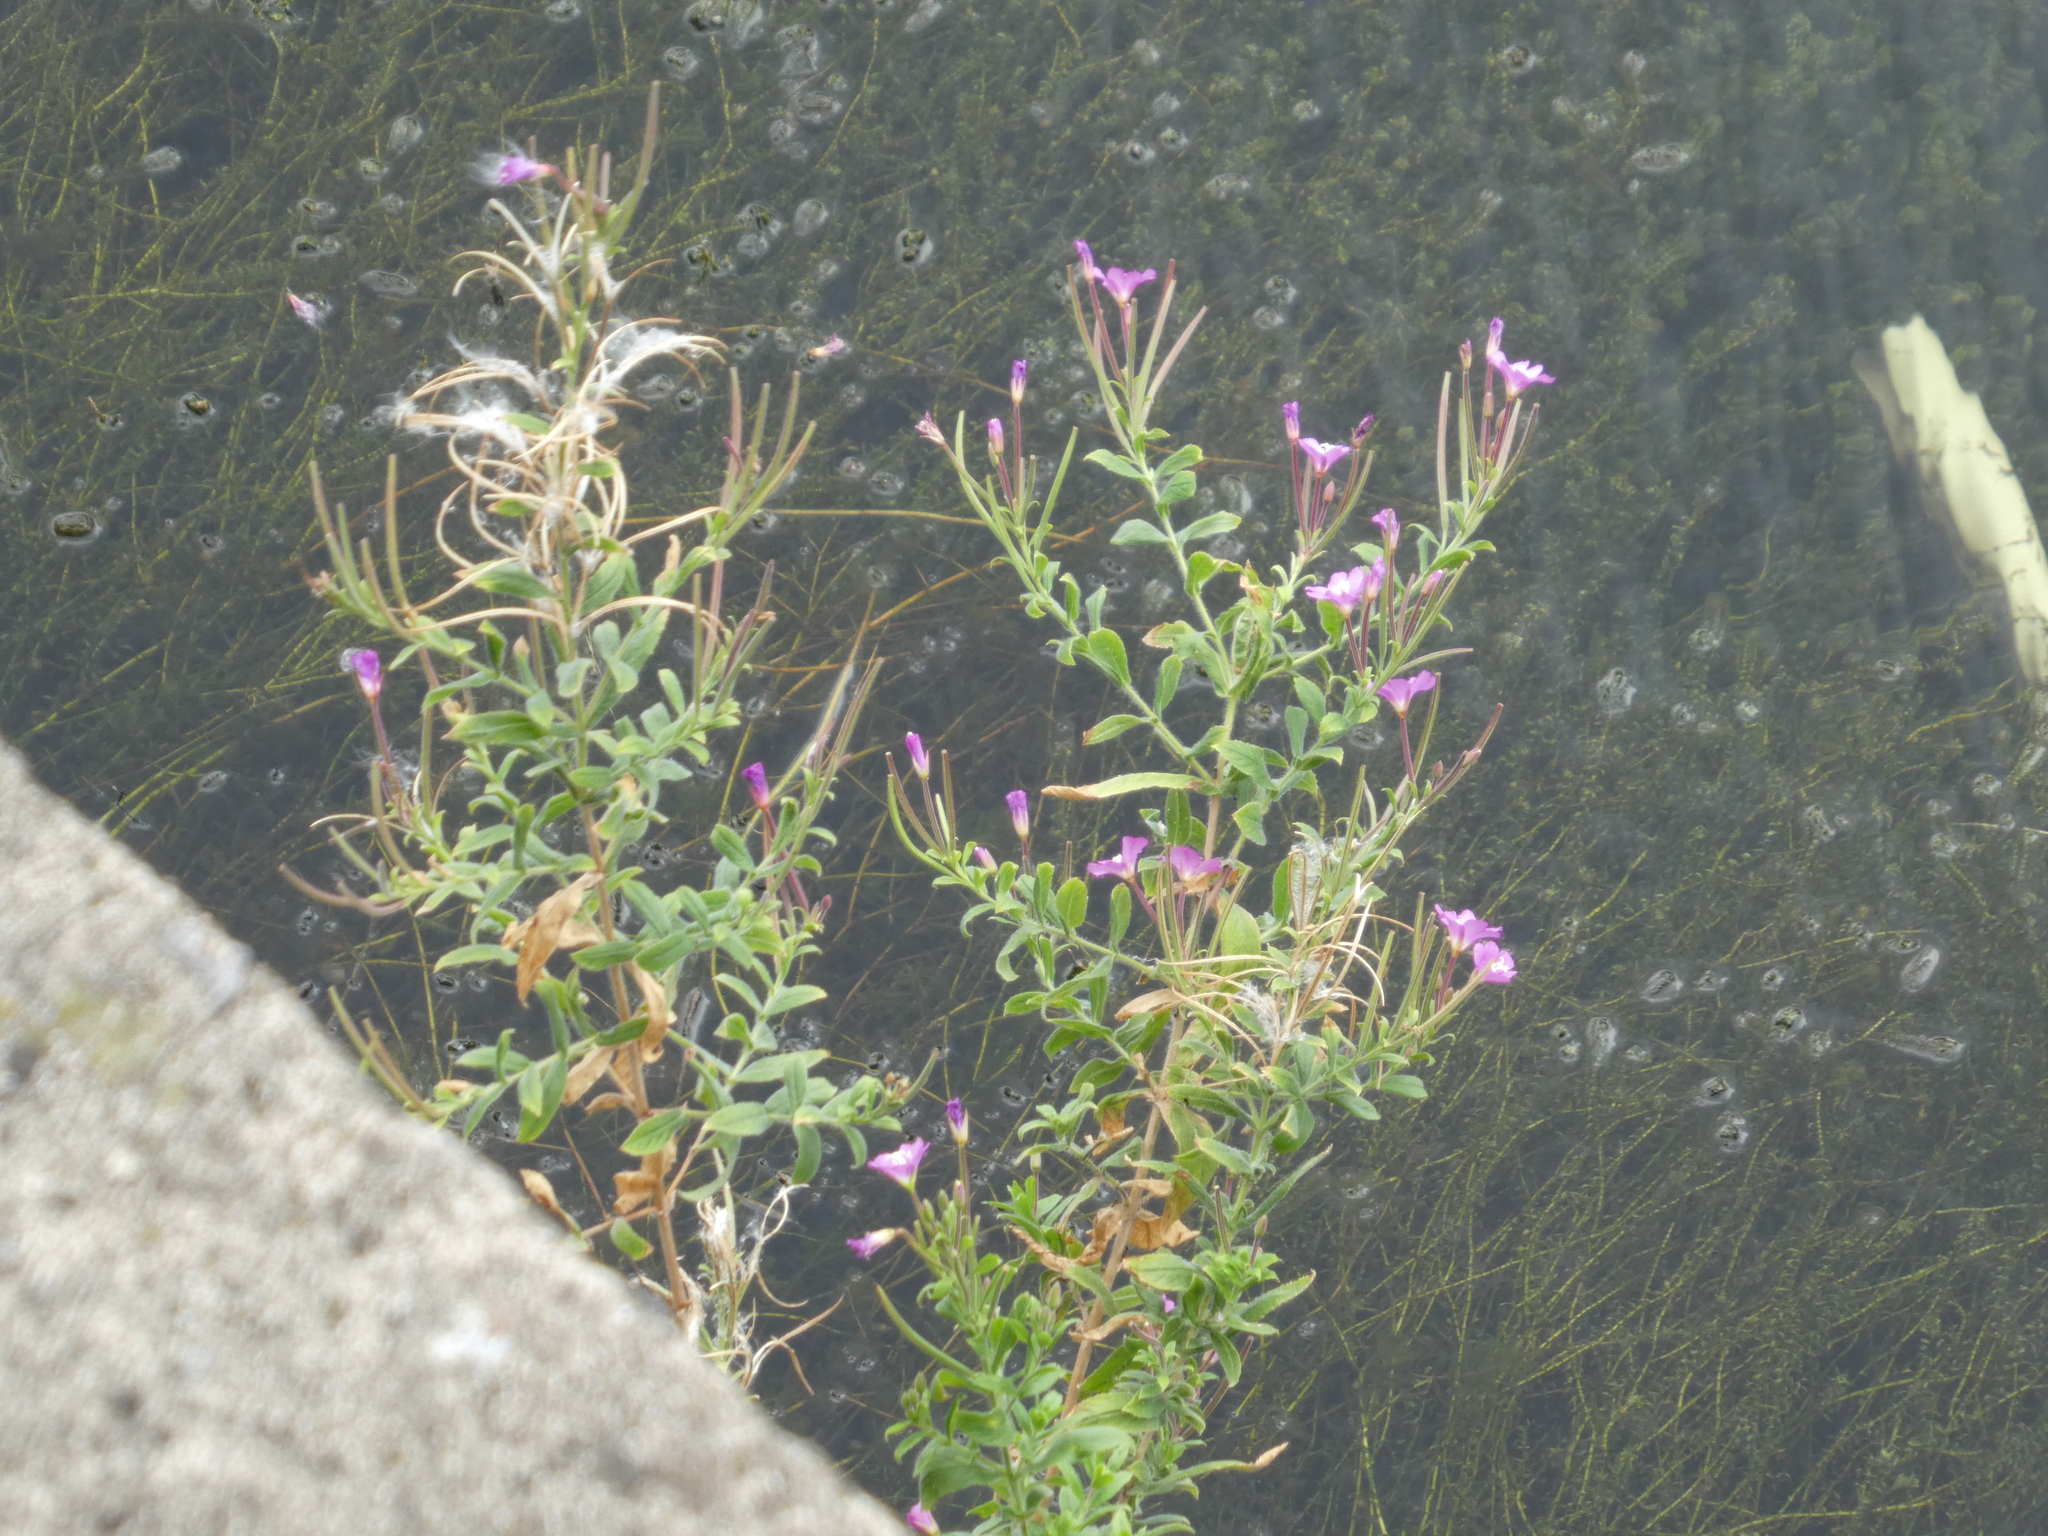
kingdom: Plantae
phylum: Tracheophyta
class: Magnoliopsida
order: Myrtales
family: Onagraceae
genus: Epilobium
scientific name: Epilobium hirsutum
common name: Great willowherb
